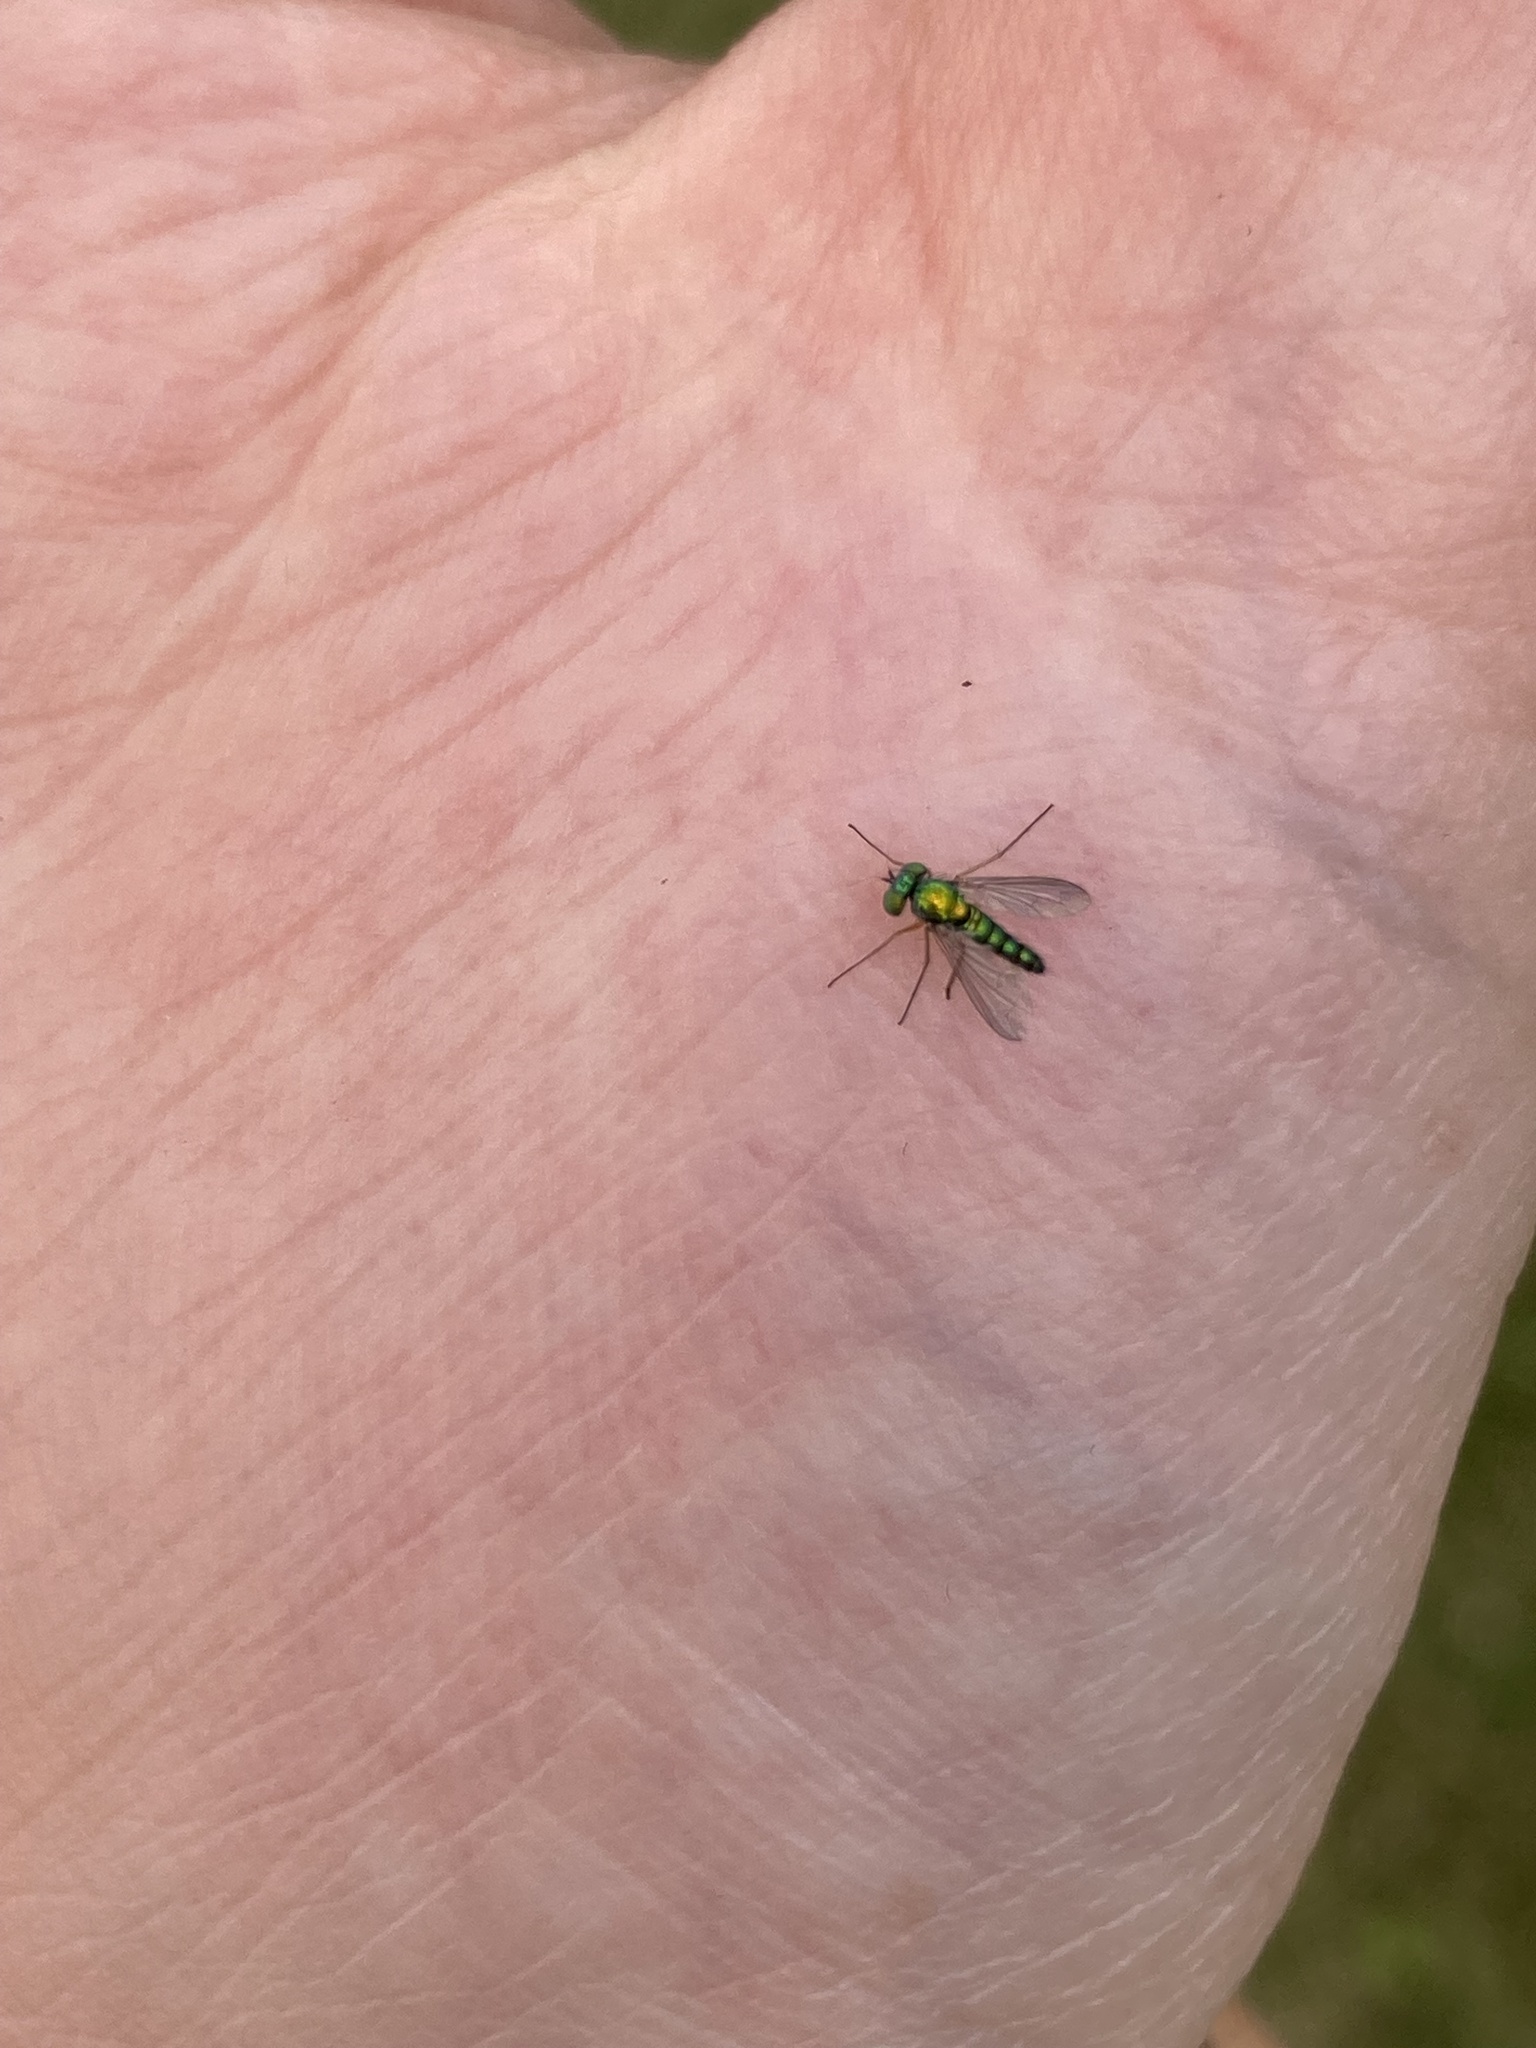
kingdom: Animalia
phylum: Arthropoda
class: Insecta
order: Diptera
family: Dolichopodidae
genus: Condylostylus
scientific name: Condylostylus flavipes
